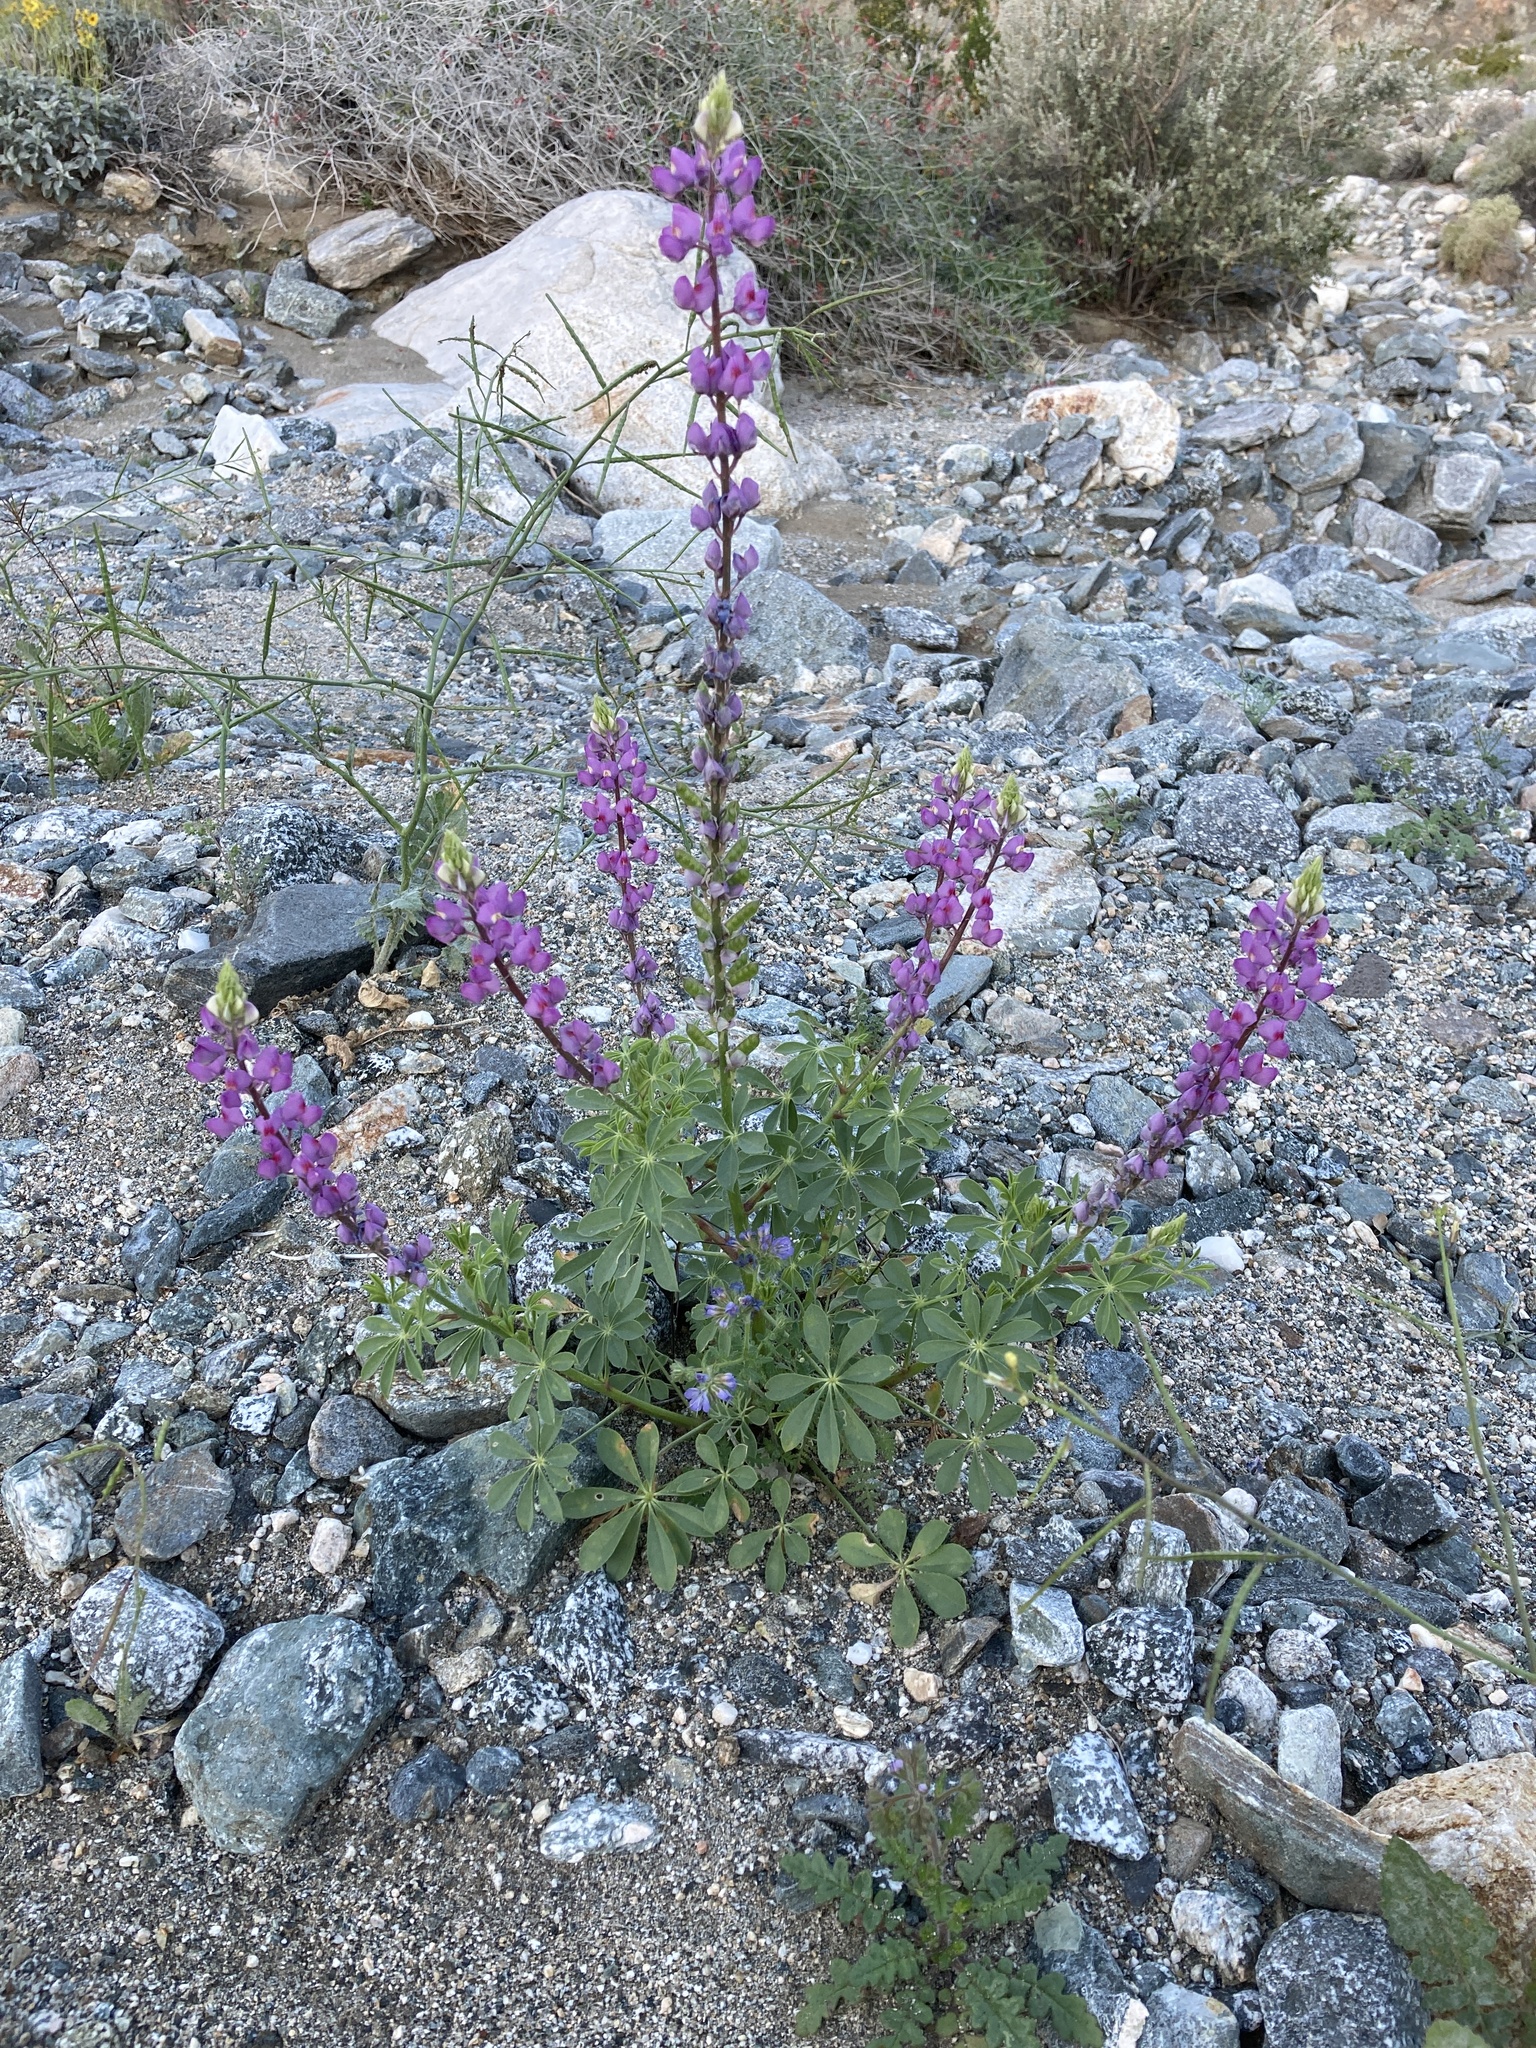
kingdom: Plantae
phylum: Tracheophyta
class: Magnoliopsida
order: Fabales
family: Fabaceae
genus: Lupinus
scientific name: Lupinus arizonicus
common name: Arizona lupine
